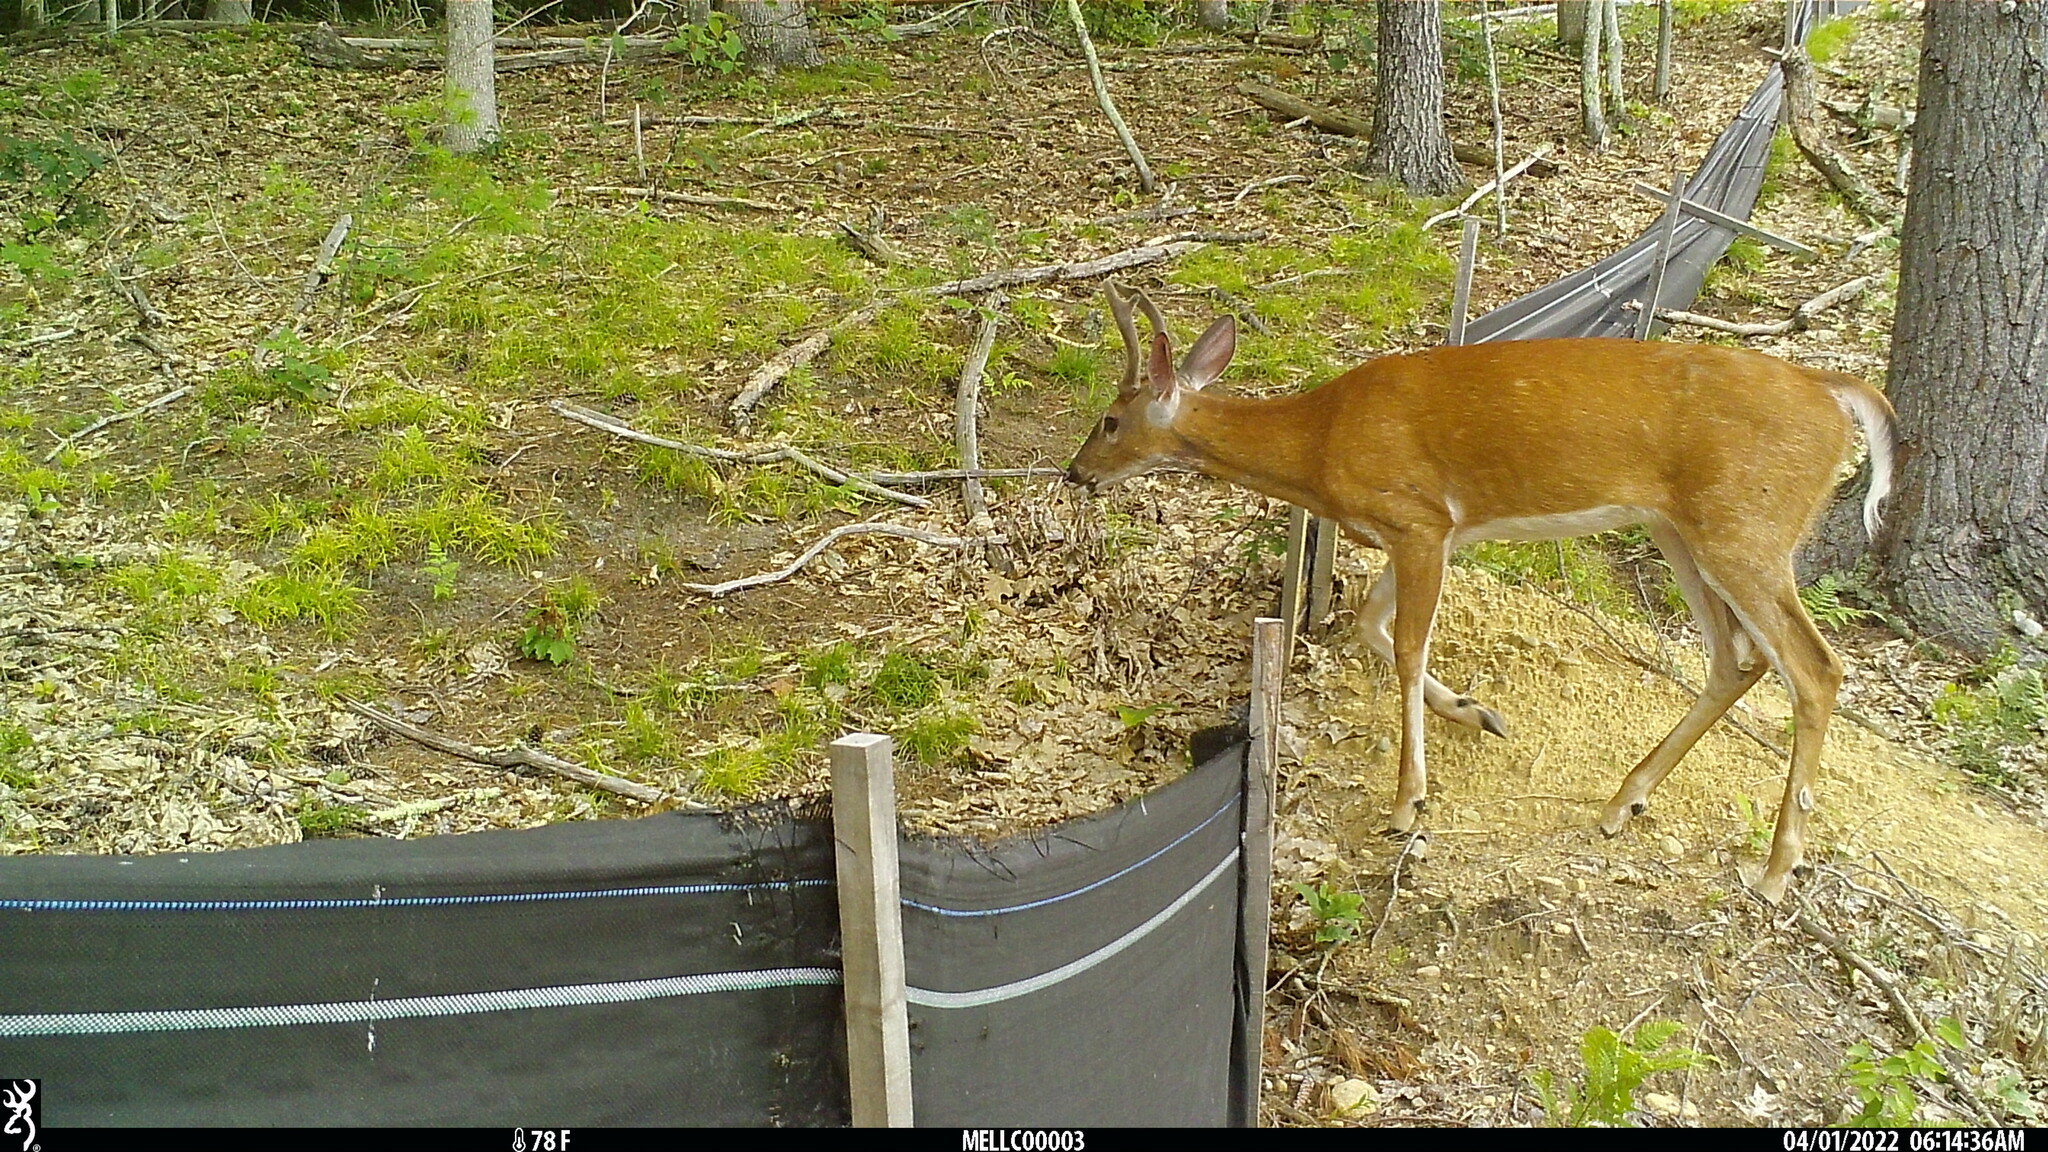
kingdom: Animalia
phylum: Chordata
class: Mammalia
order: Artiodactyla
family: Cervidae
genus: Odocoileus
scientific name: Odocoileus virginianus
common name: White-tailed deer
